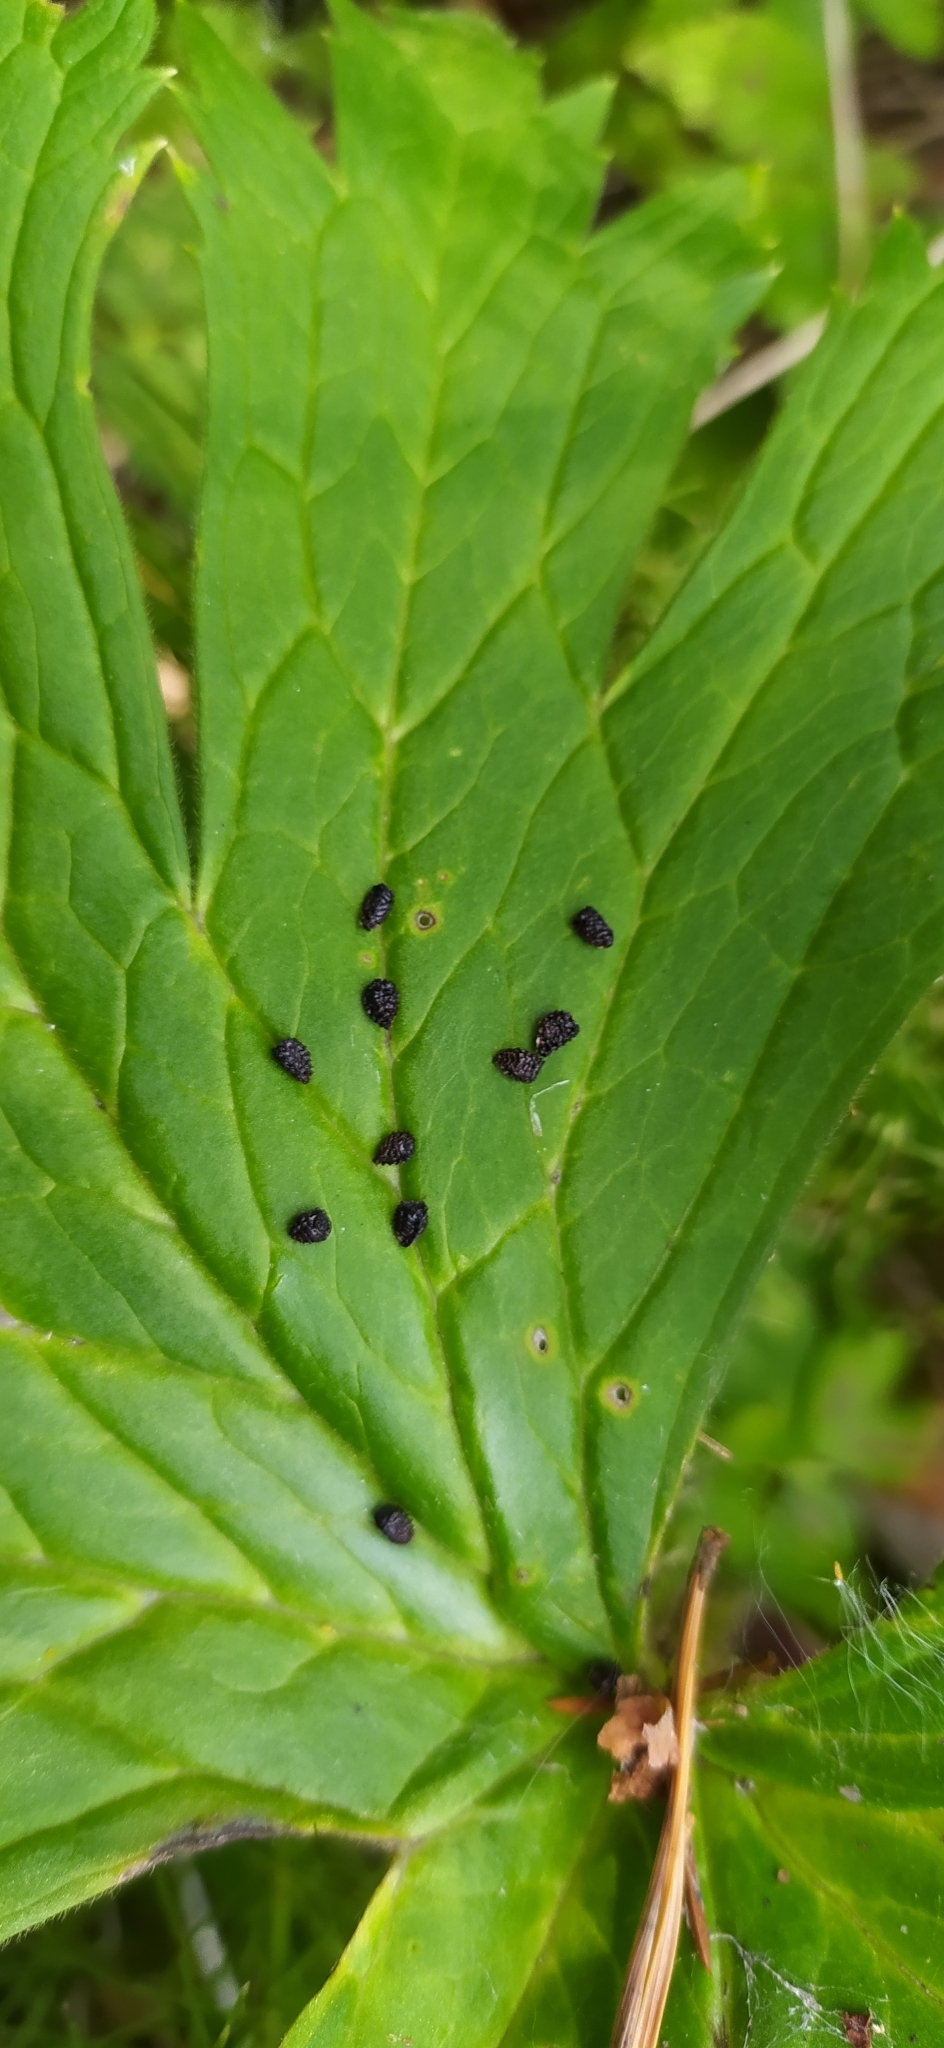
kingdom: Plantae
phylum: Tracheophyta
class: Magnoliopsida
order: Ranunculales
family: Ranunculaceae
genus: Aconitum
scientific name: Aconitum septentrionale
